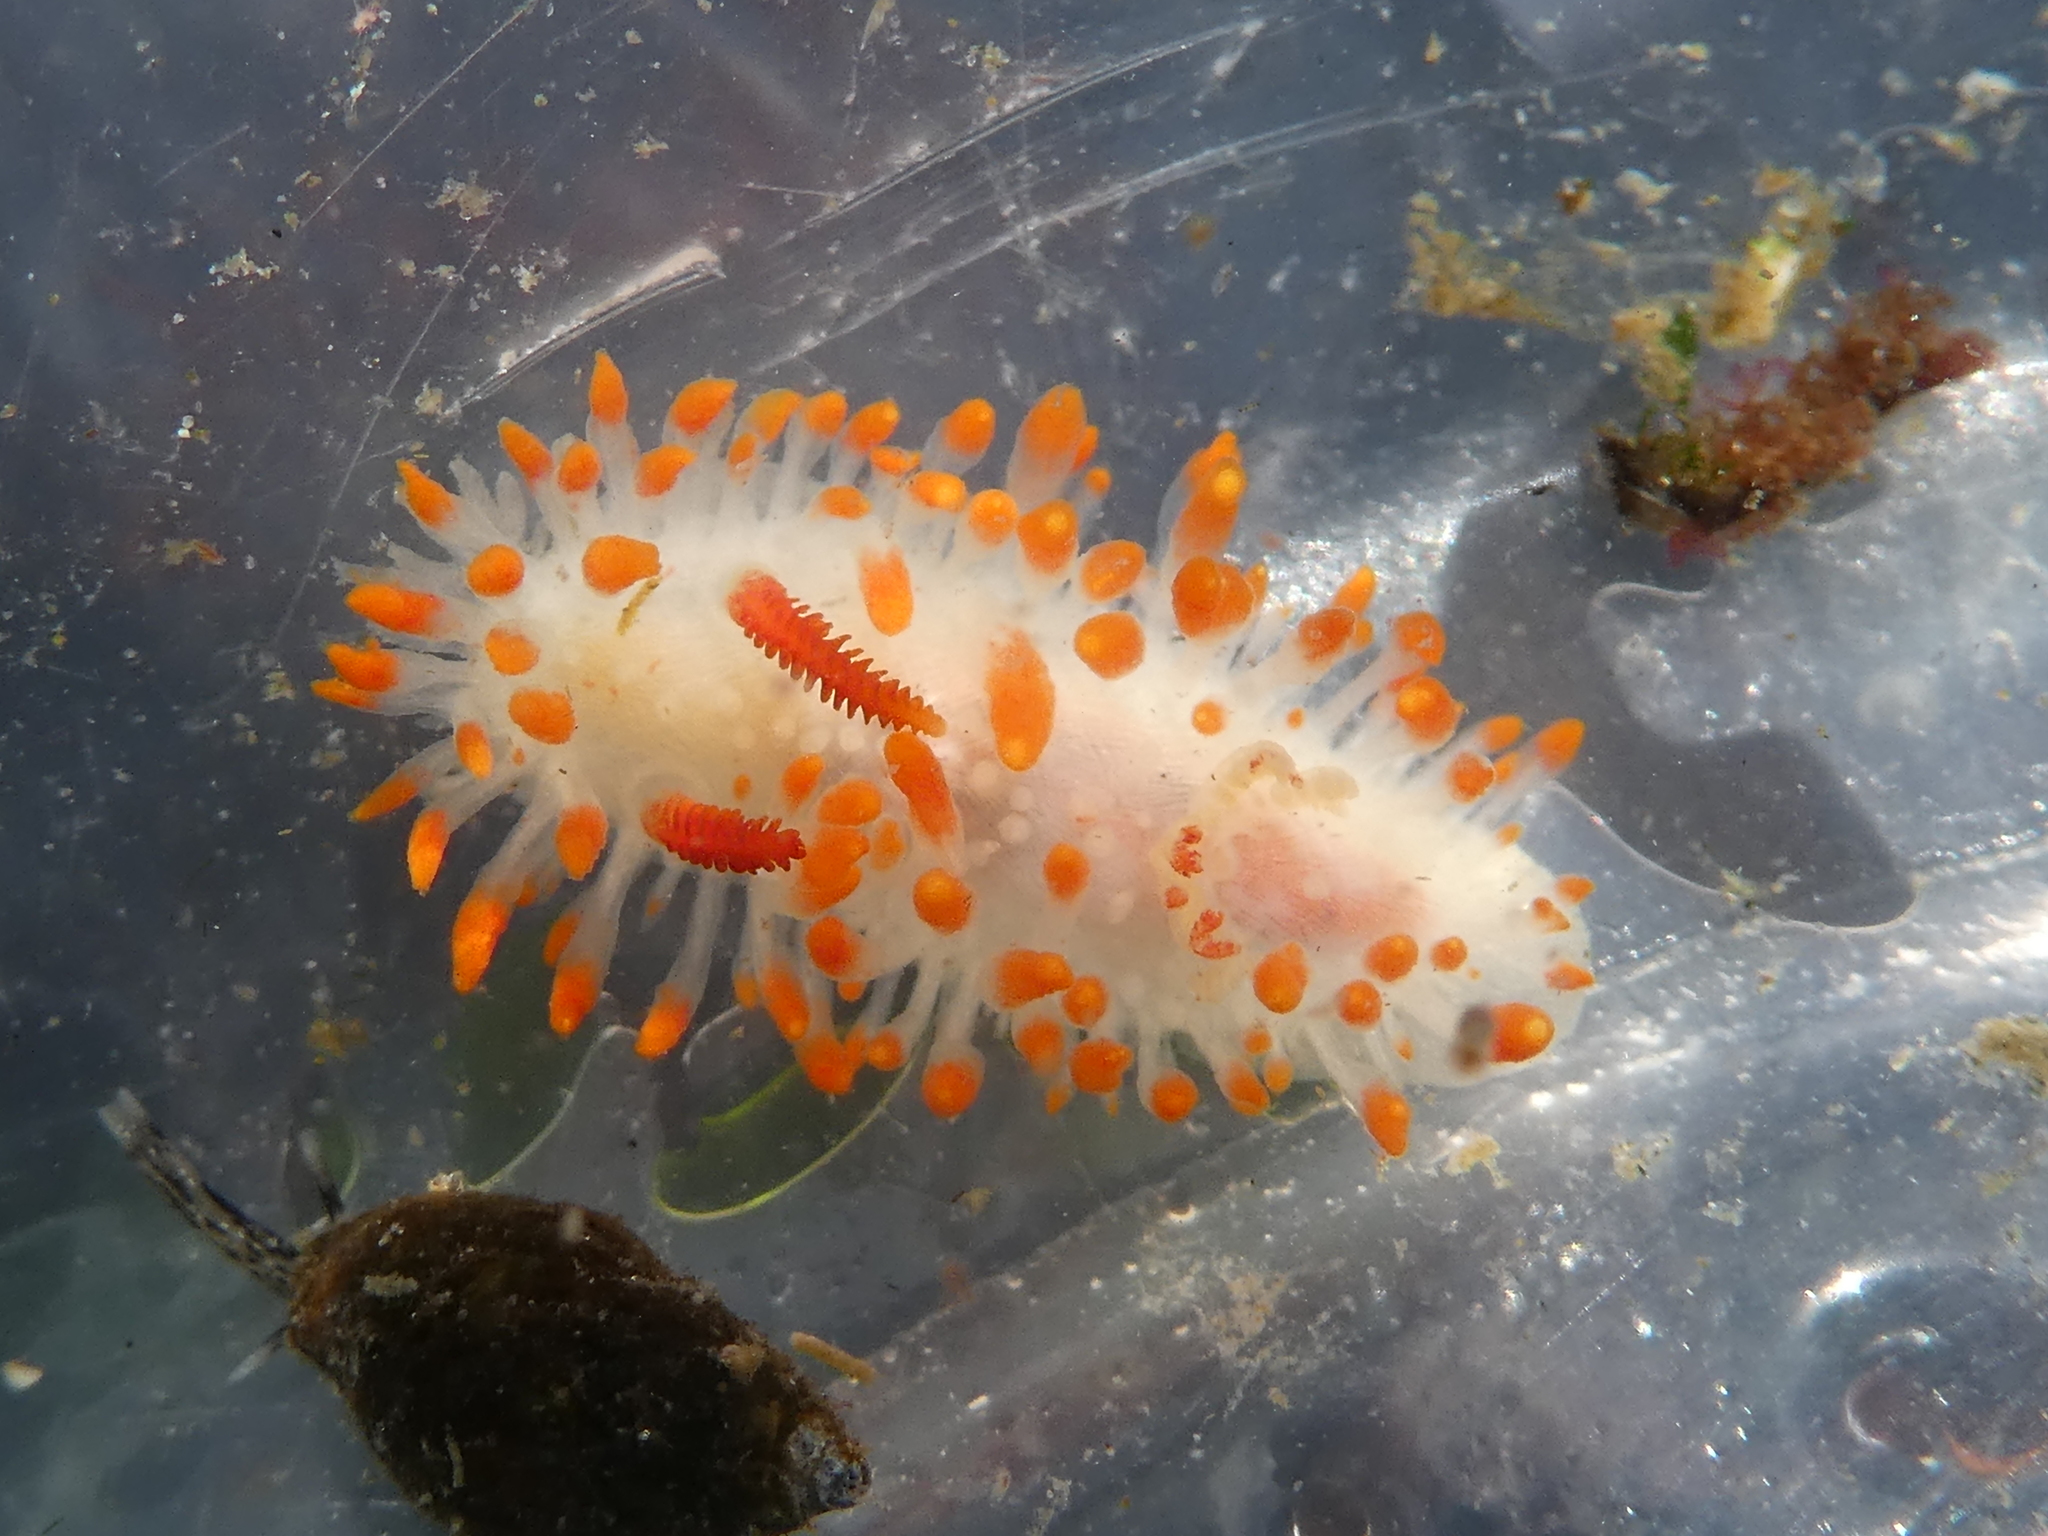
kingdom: Animalia
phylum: Mollusca
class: Gastropoda
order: Nudibranchia
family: Polyceridae
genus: Limacia
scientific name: Limacia cockerelli
